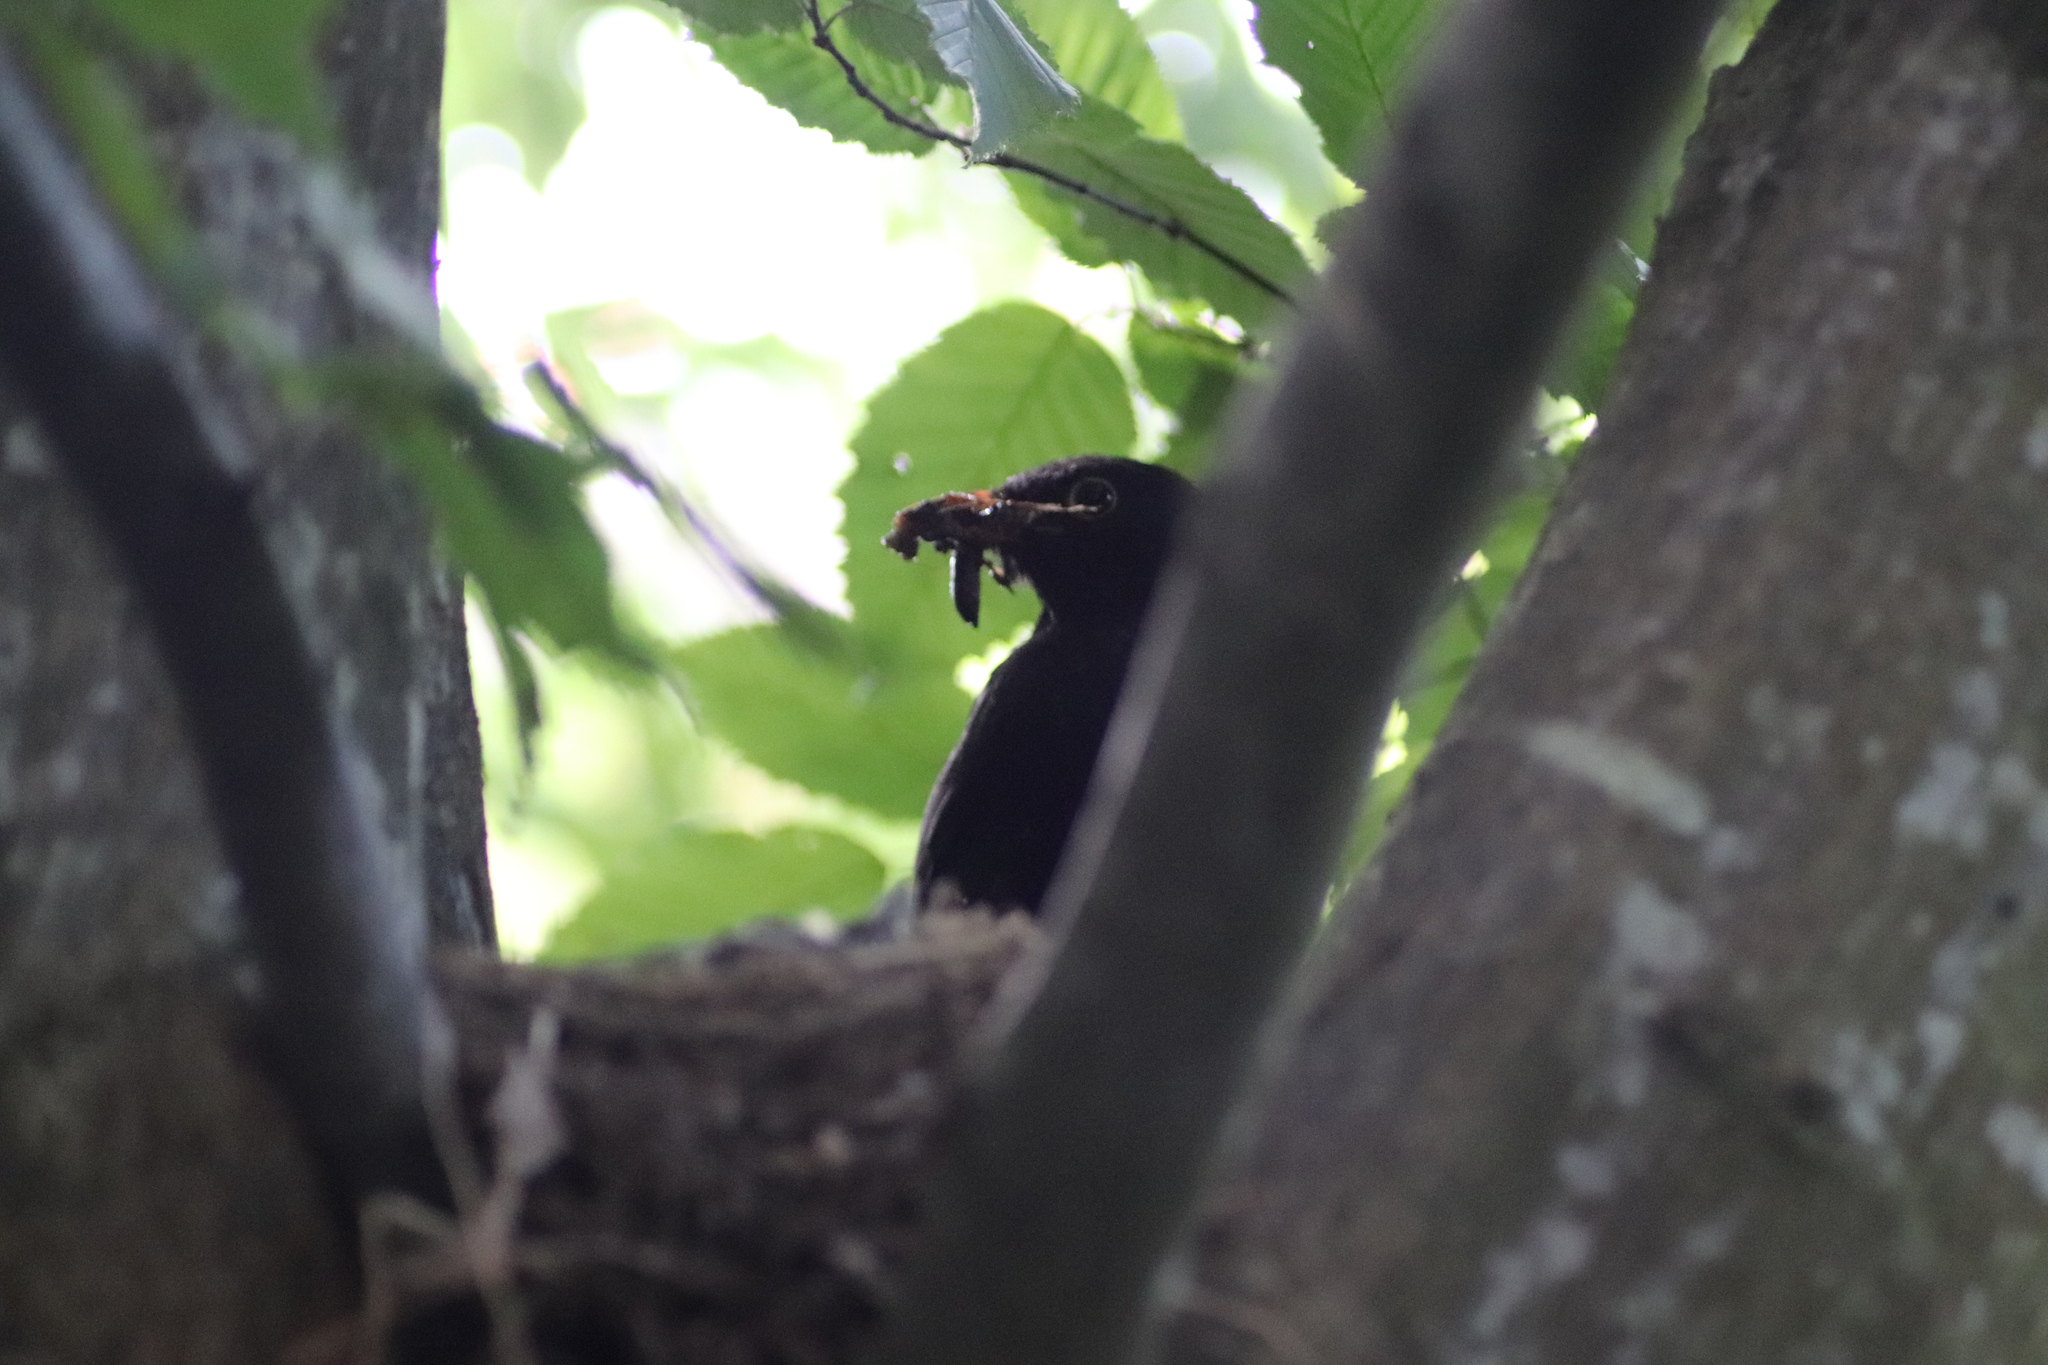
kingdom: Animalia
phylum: Chordata
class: Aves
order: Passeriformes
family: Turdidae
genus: Turdus
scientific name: Turdus merula
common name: Common blackbird
